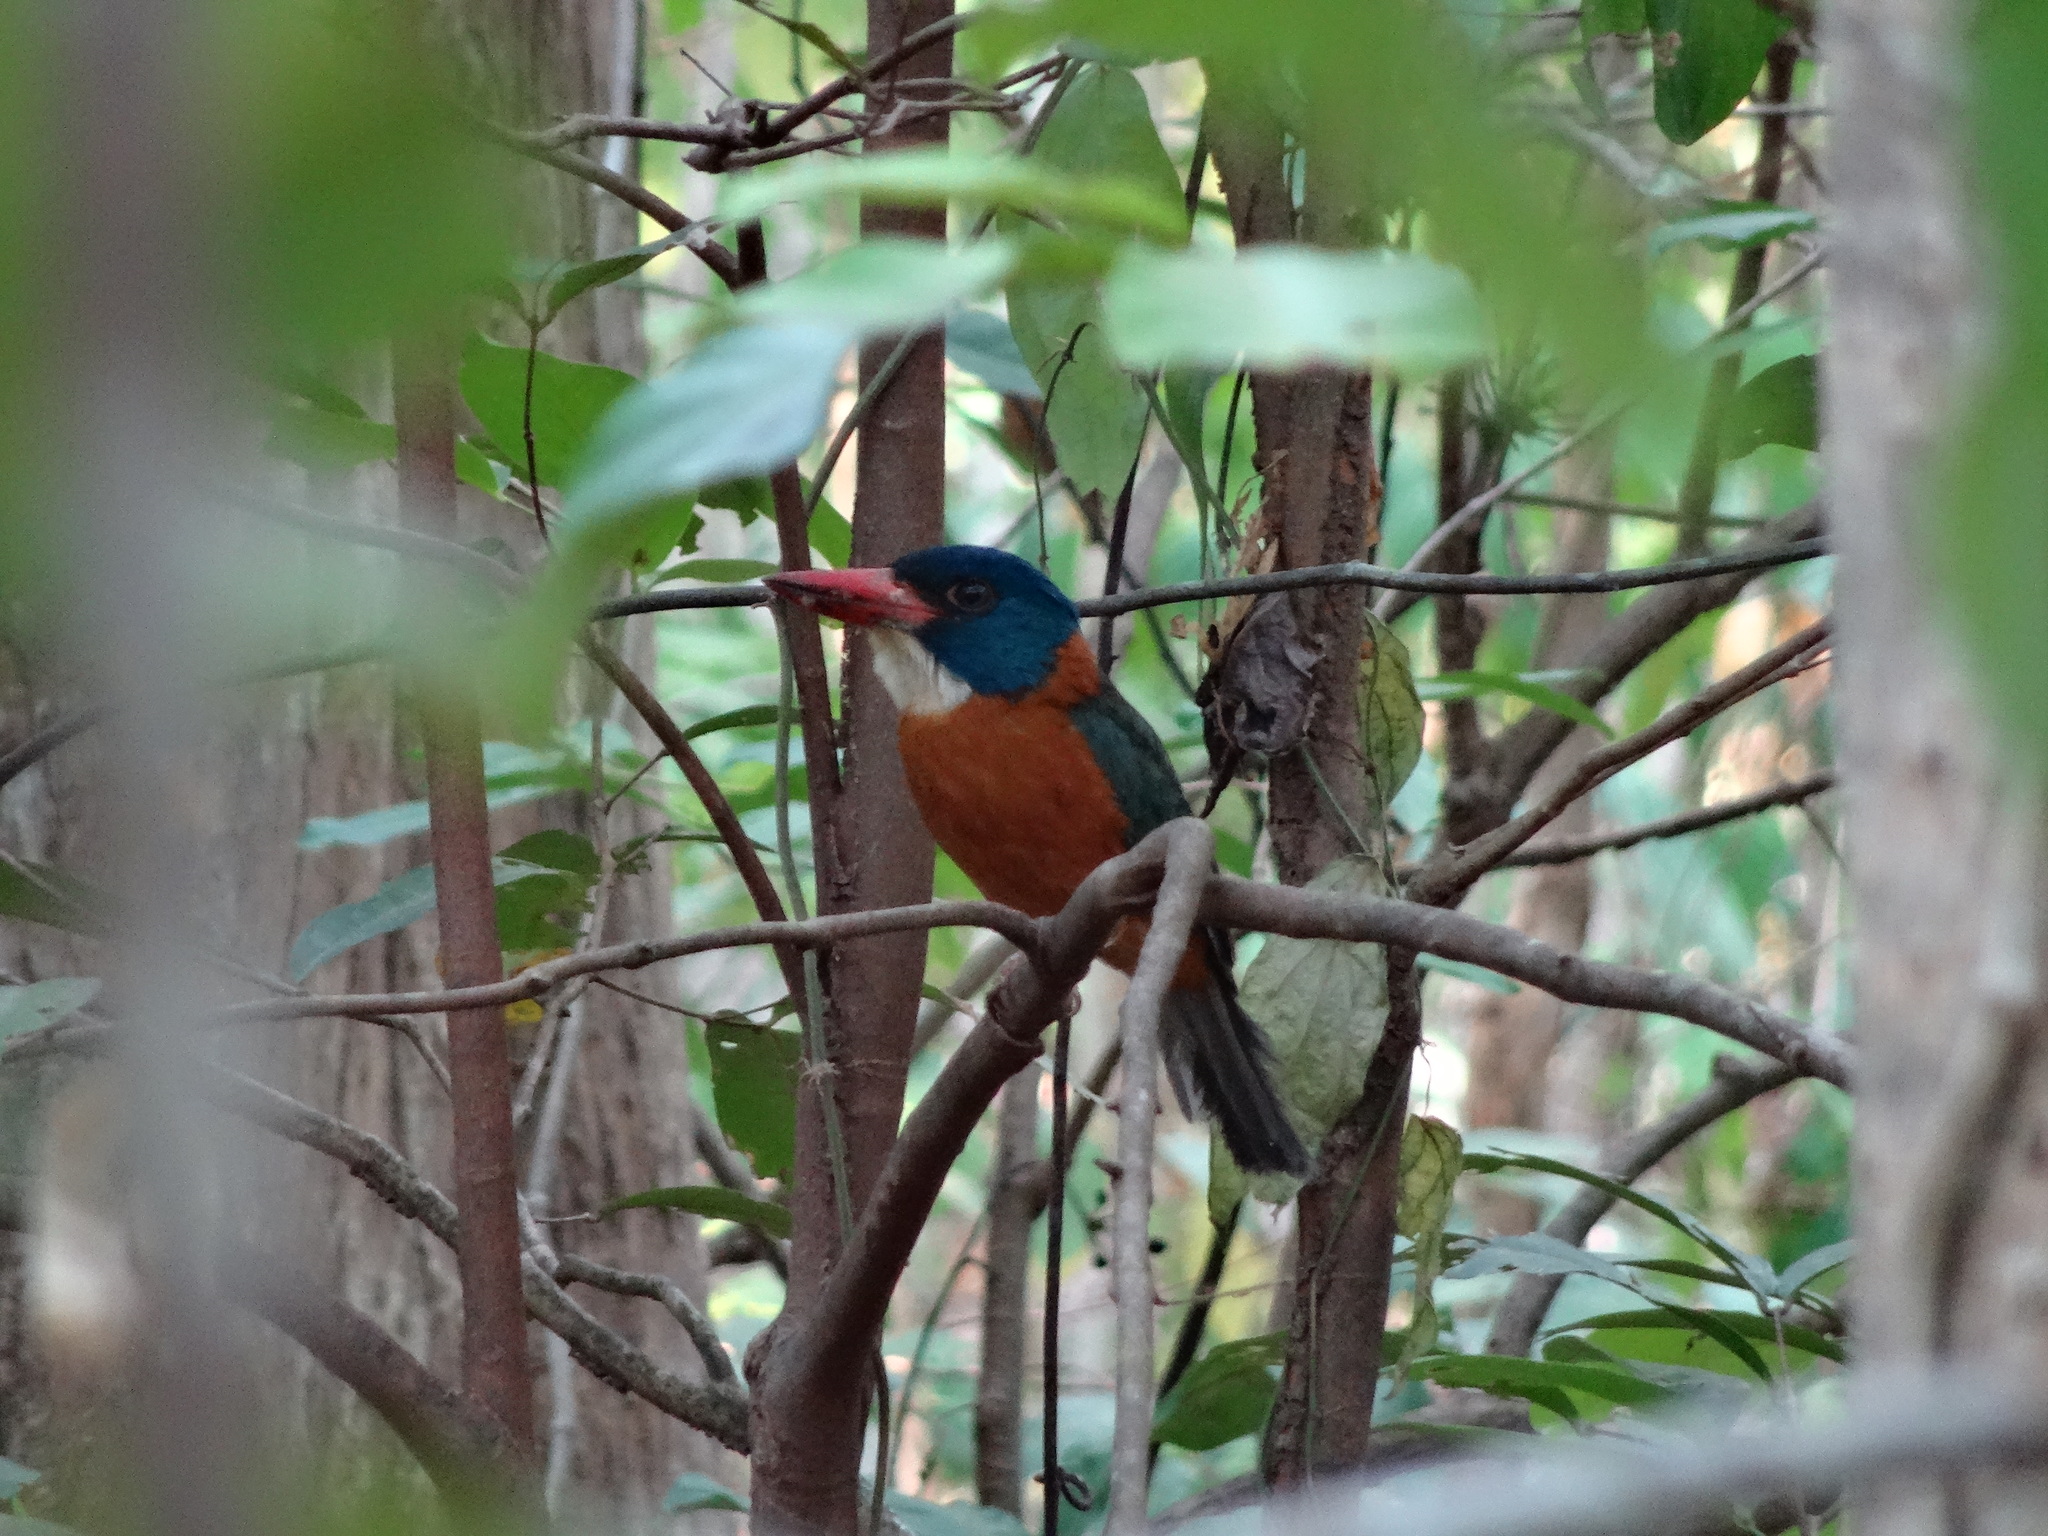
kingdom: Animalia
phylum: Chordata
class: Aves
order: Coraciiformes
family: Alcedinidae
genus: Actenoides
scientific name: Actenoides monachus
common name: Green-backed kingfisher
